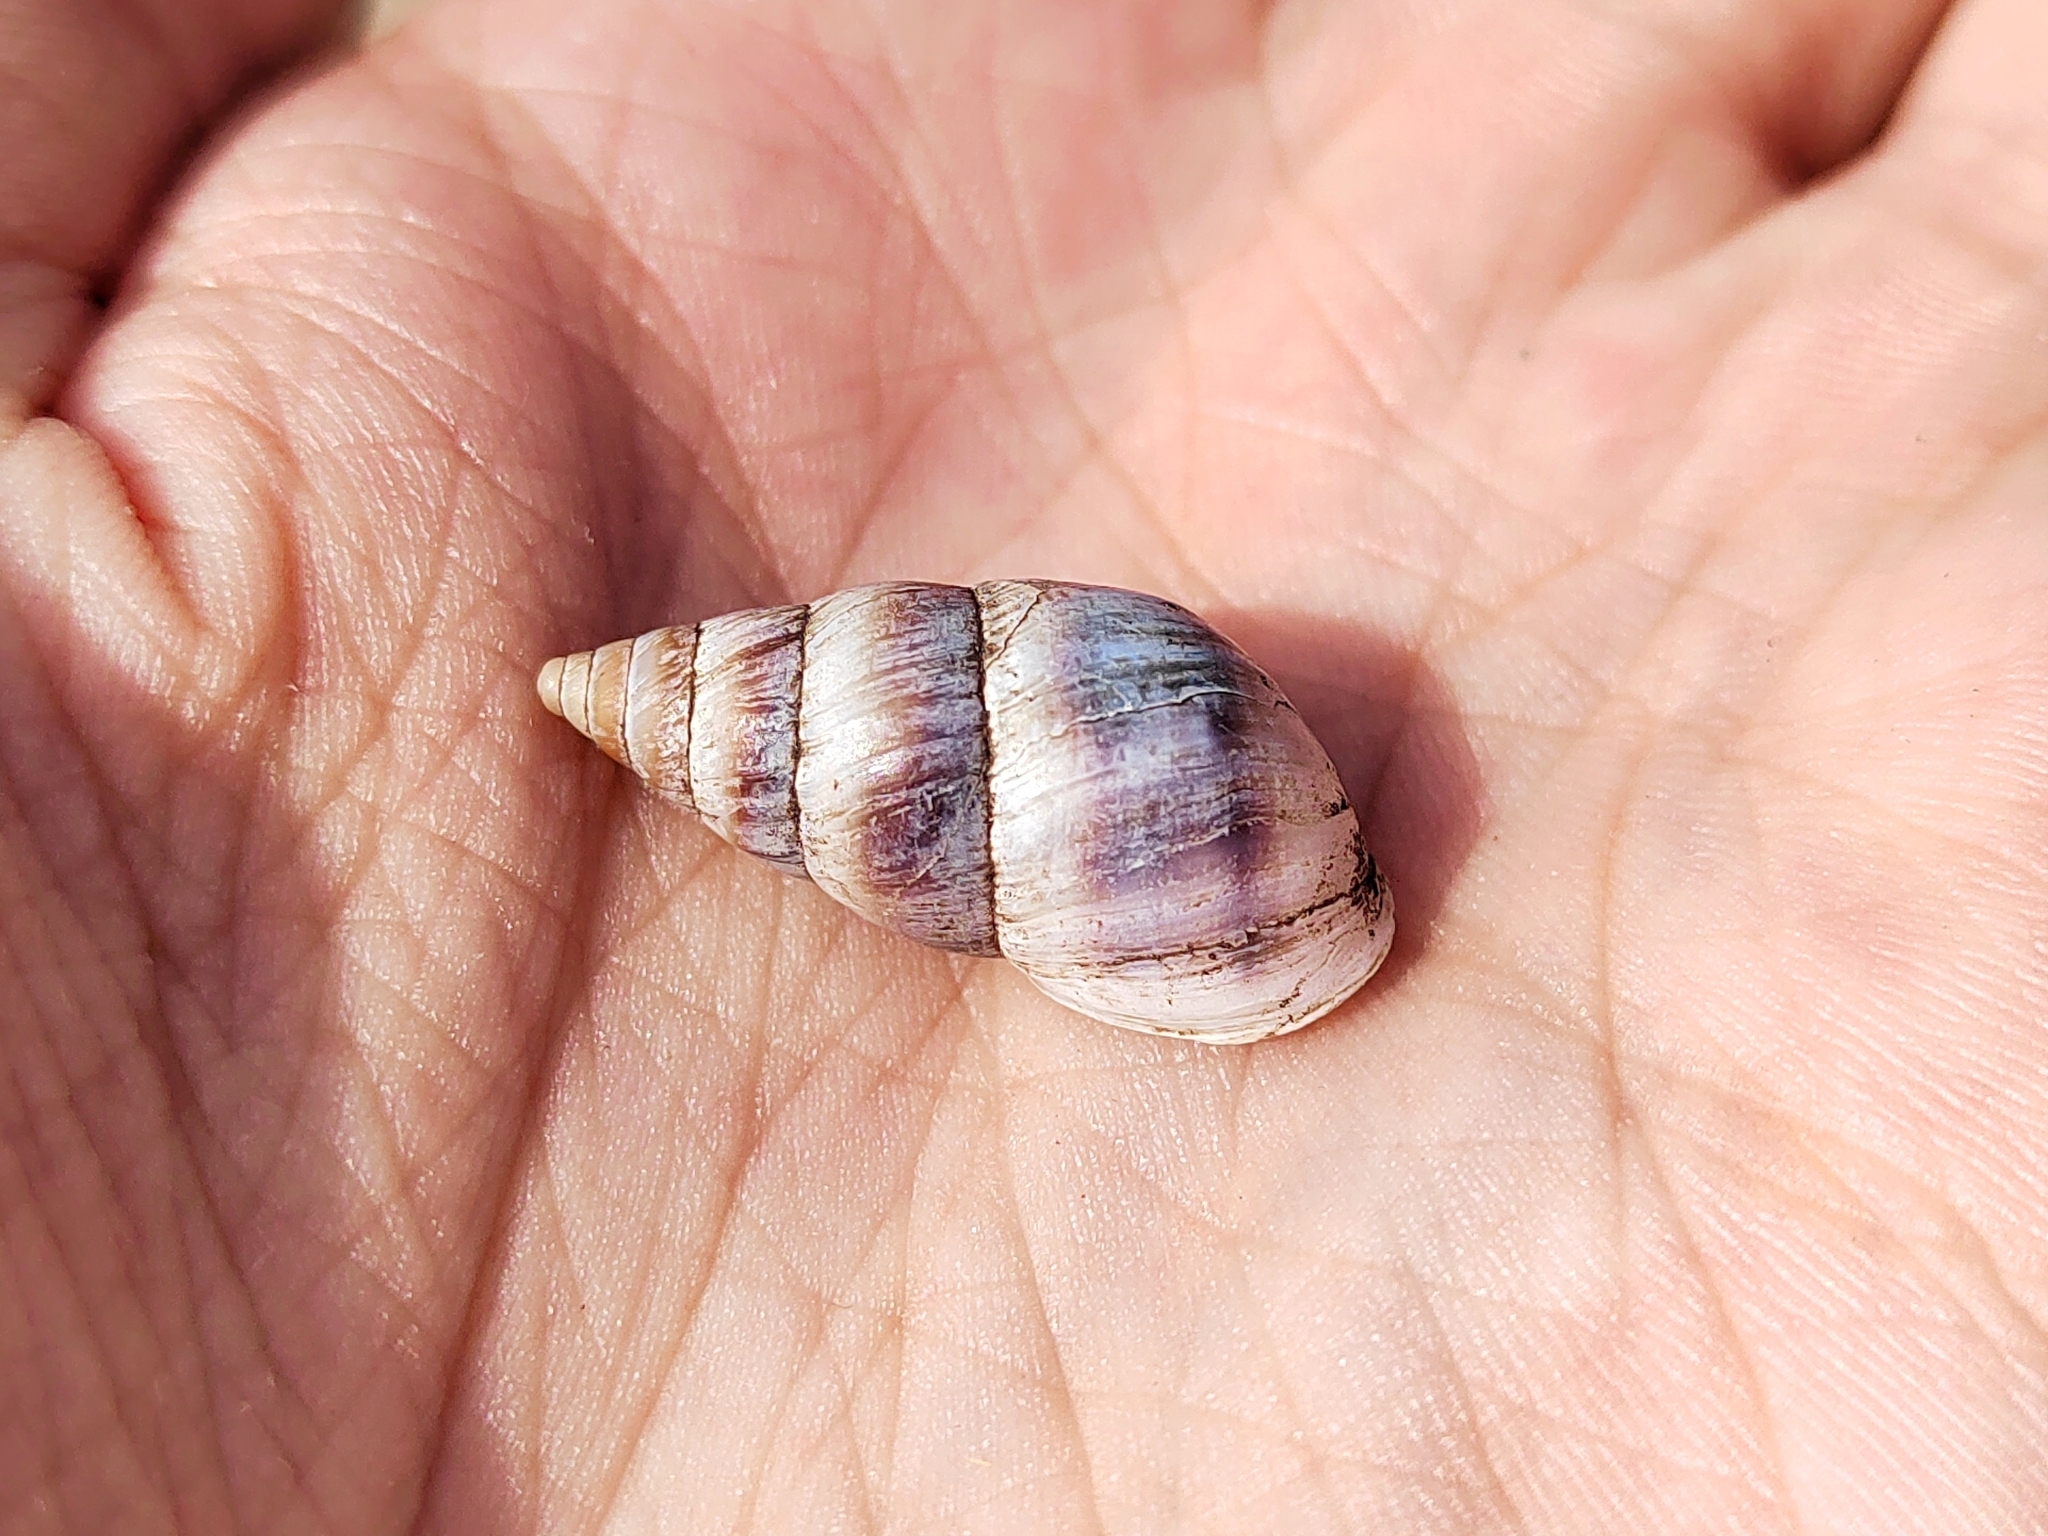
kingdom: Animalia
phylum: Mollusca
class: Gastropoda
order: Stylommatophora
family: Enidae
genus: Caucasicola
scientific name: Caucasicola raddei
